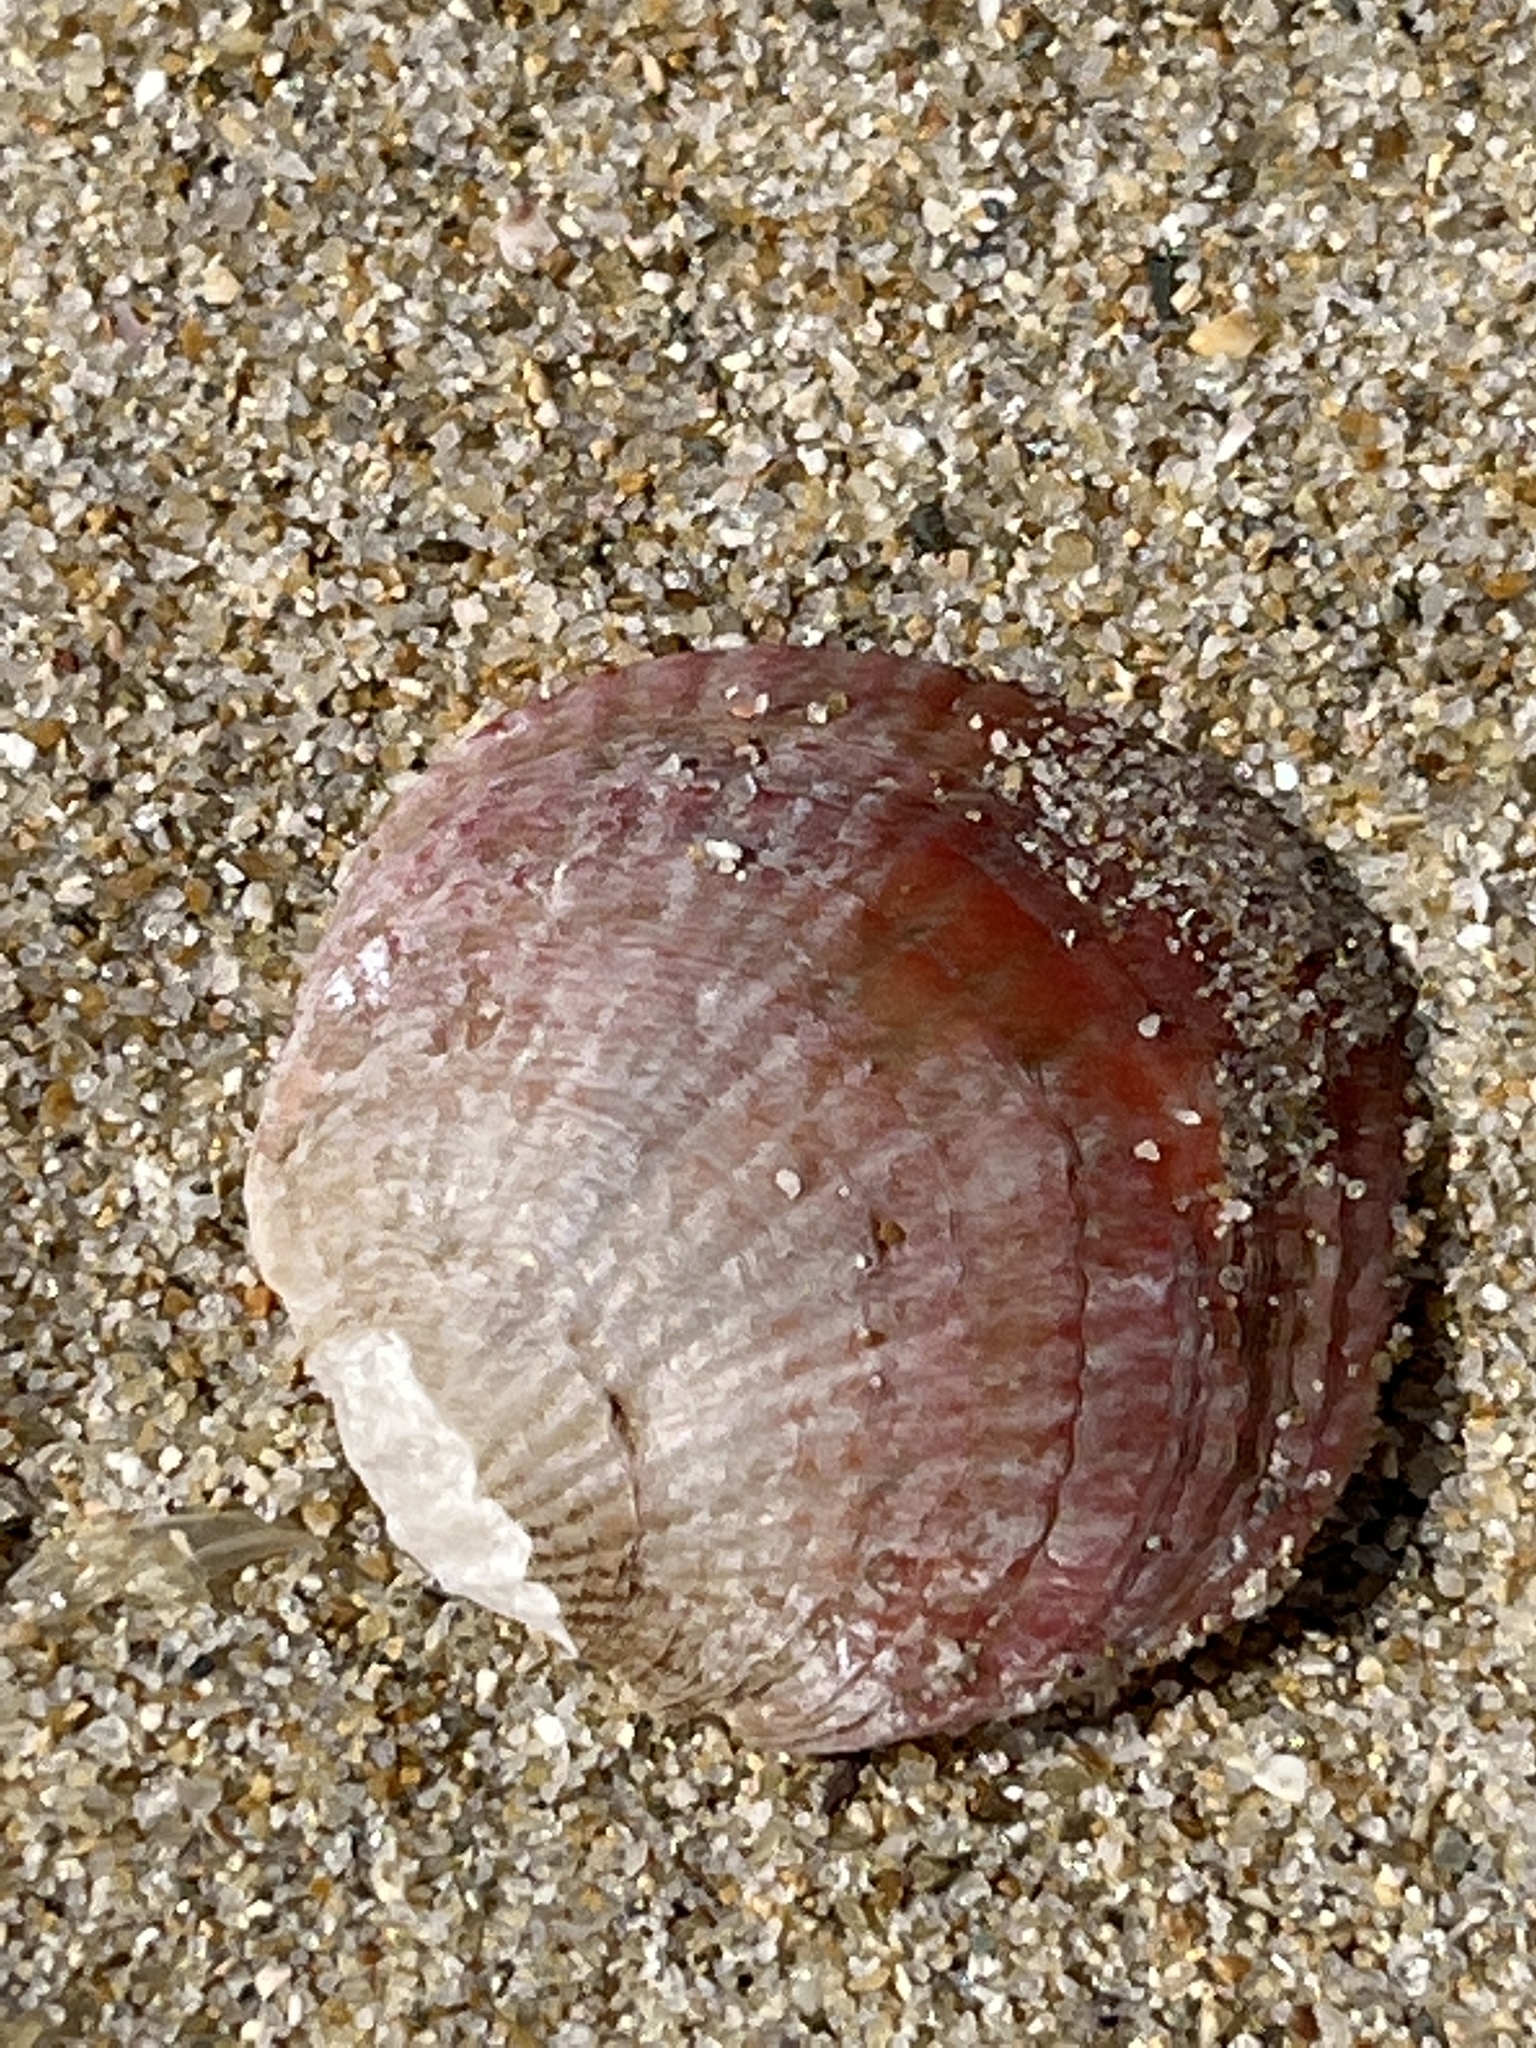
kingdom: Animalia
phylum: Brachiopoda
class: Rhynchonellata
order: Terebratulida
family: Terebrataliidae
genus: Coptothyris
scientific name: Coptothyris grayi
